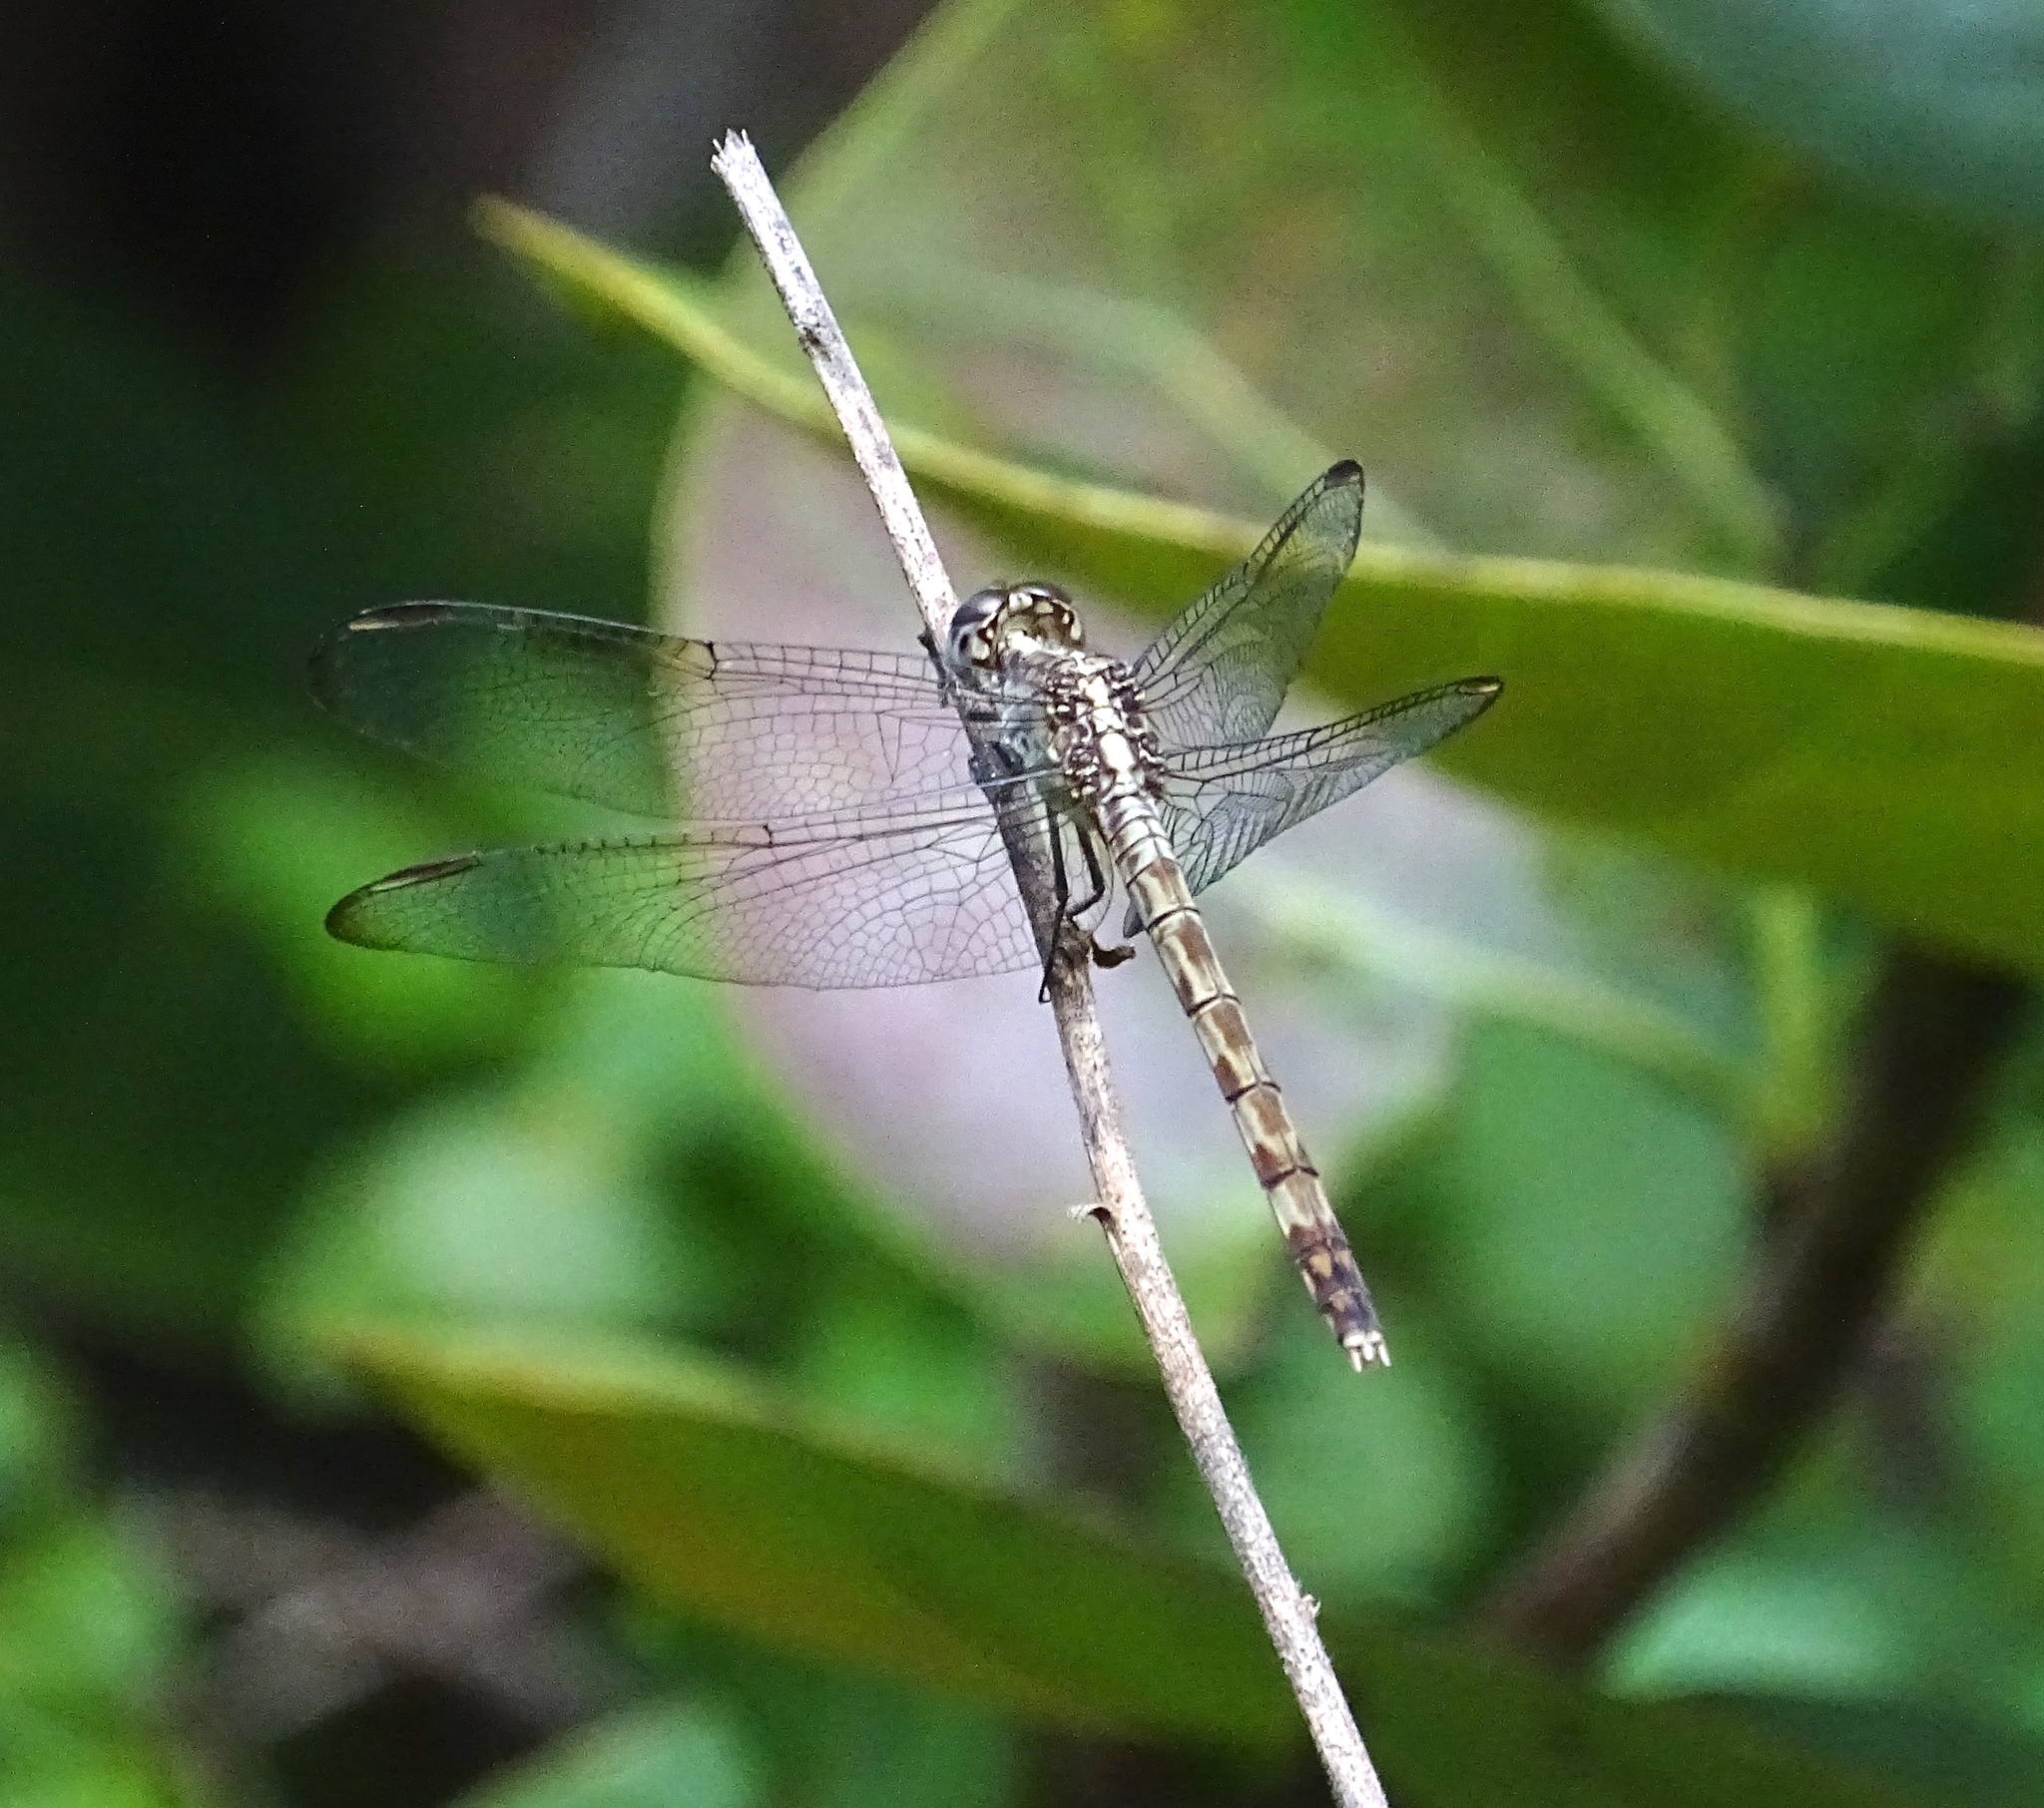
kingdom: Animalia
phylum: Arthropoda
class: Insecta
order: Odonata
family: Libellulidae
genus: Erythrodiplax
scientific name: Erythrodiplax umbrata
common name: Band-winged dragonlet
